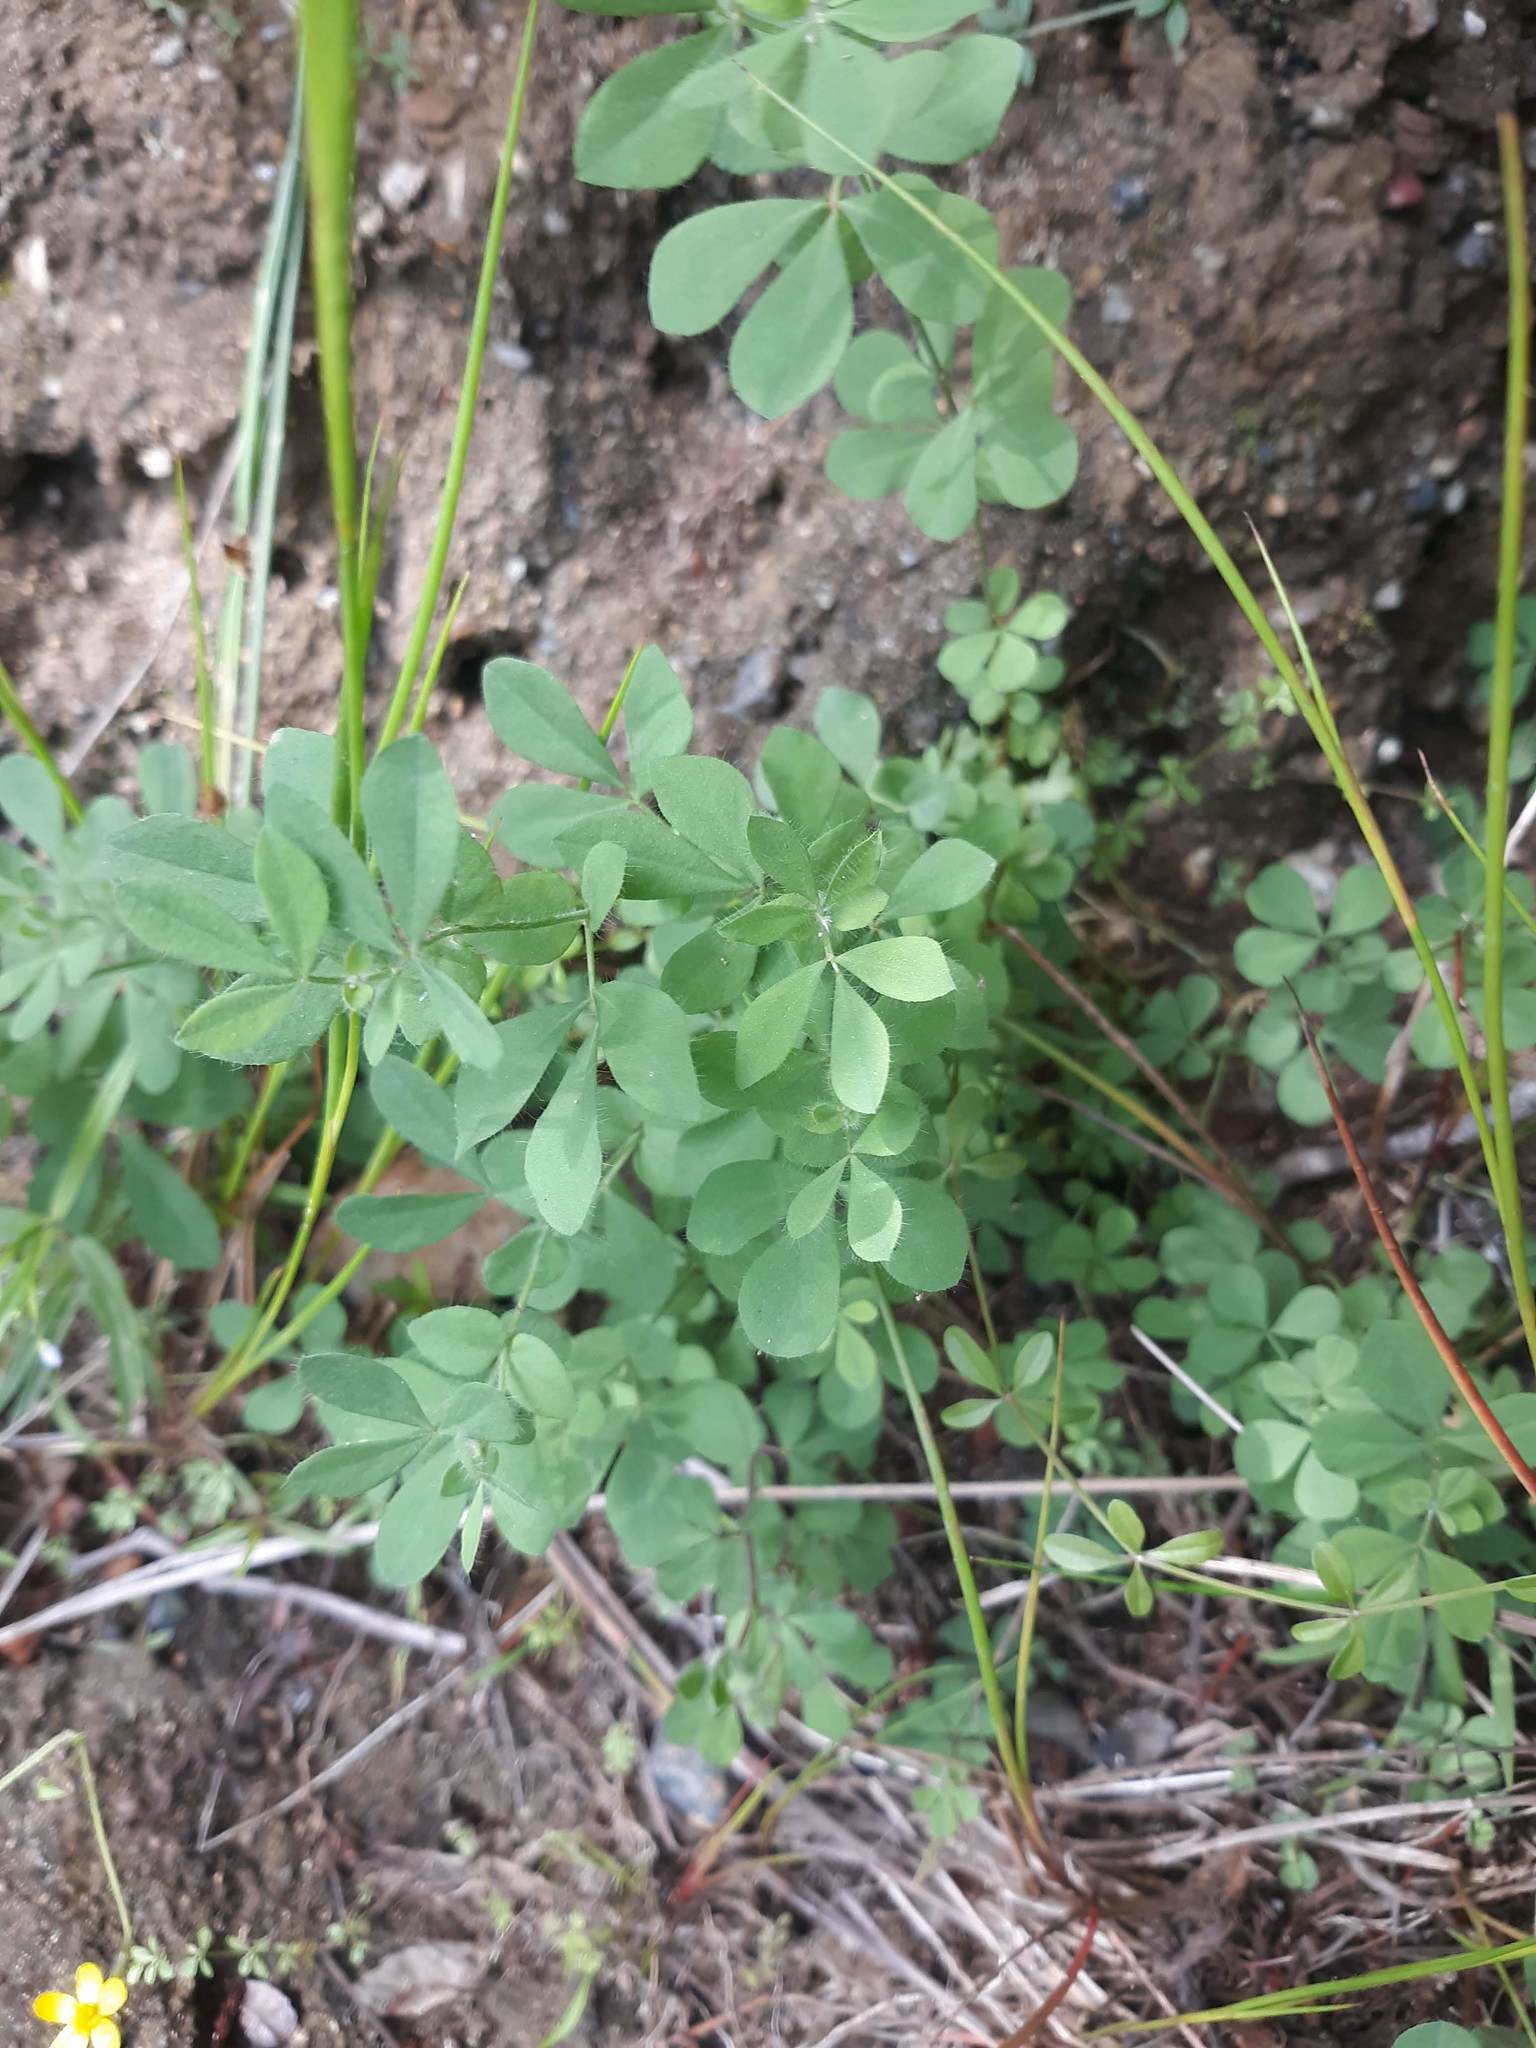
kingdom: Plantae
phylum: Tracheophyta
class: Magnoliopsida
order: Fabales
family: Fabaceae
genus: Lotus
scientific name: Lotus pedunculatus
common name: Greater birdsfoot-trefoil
